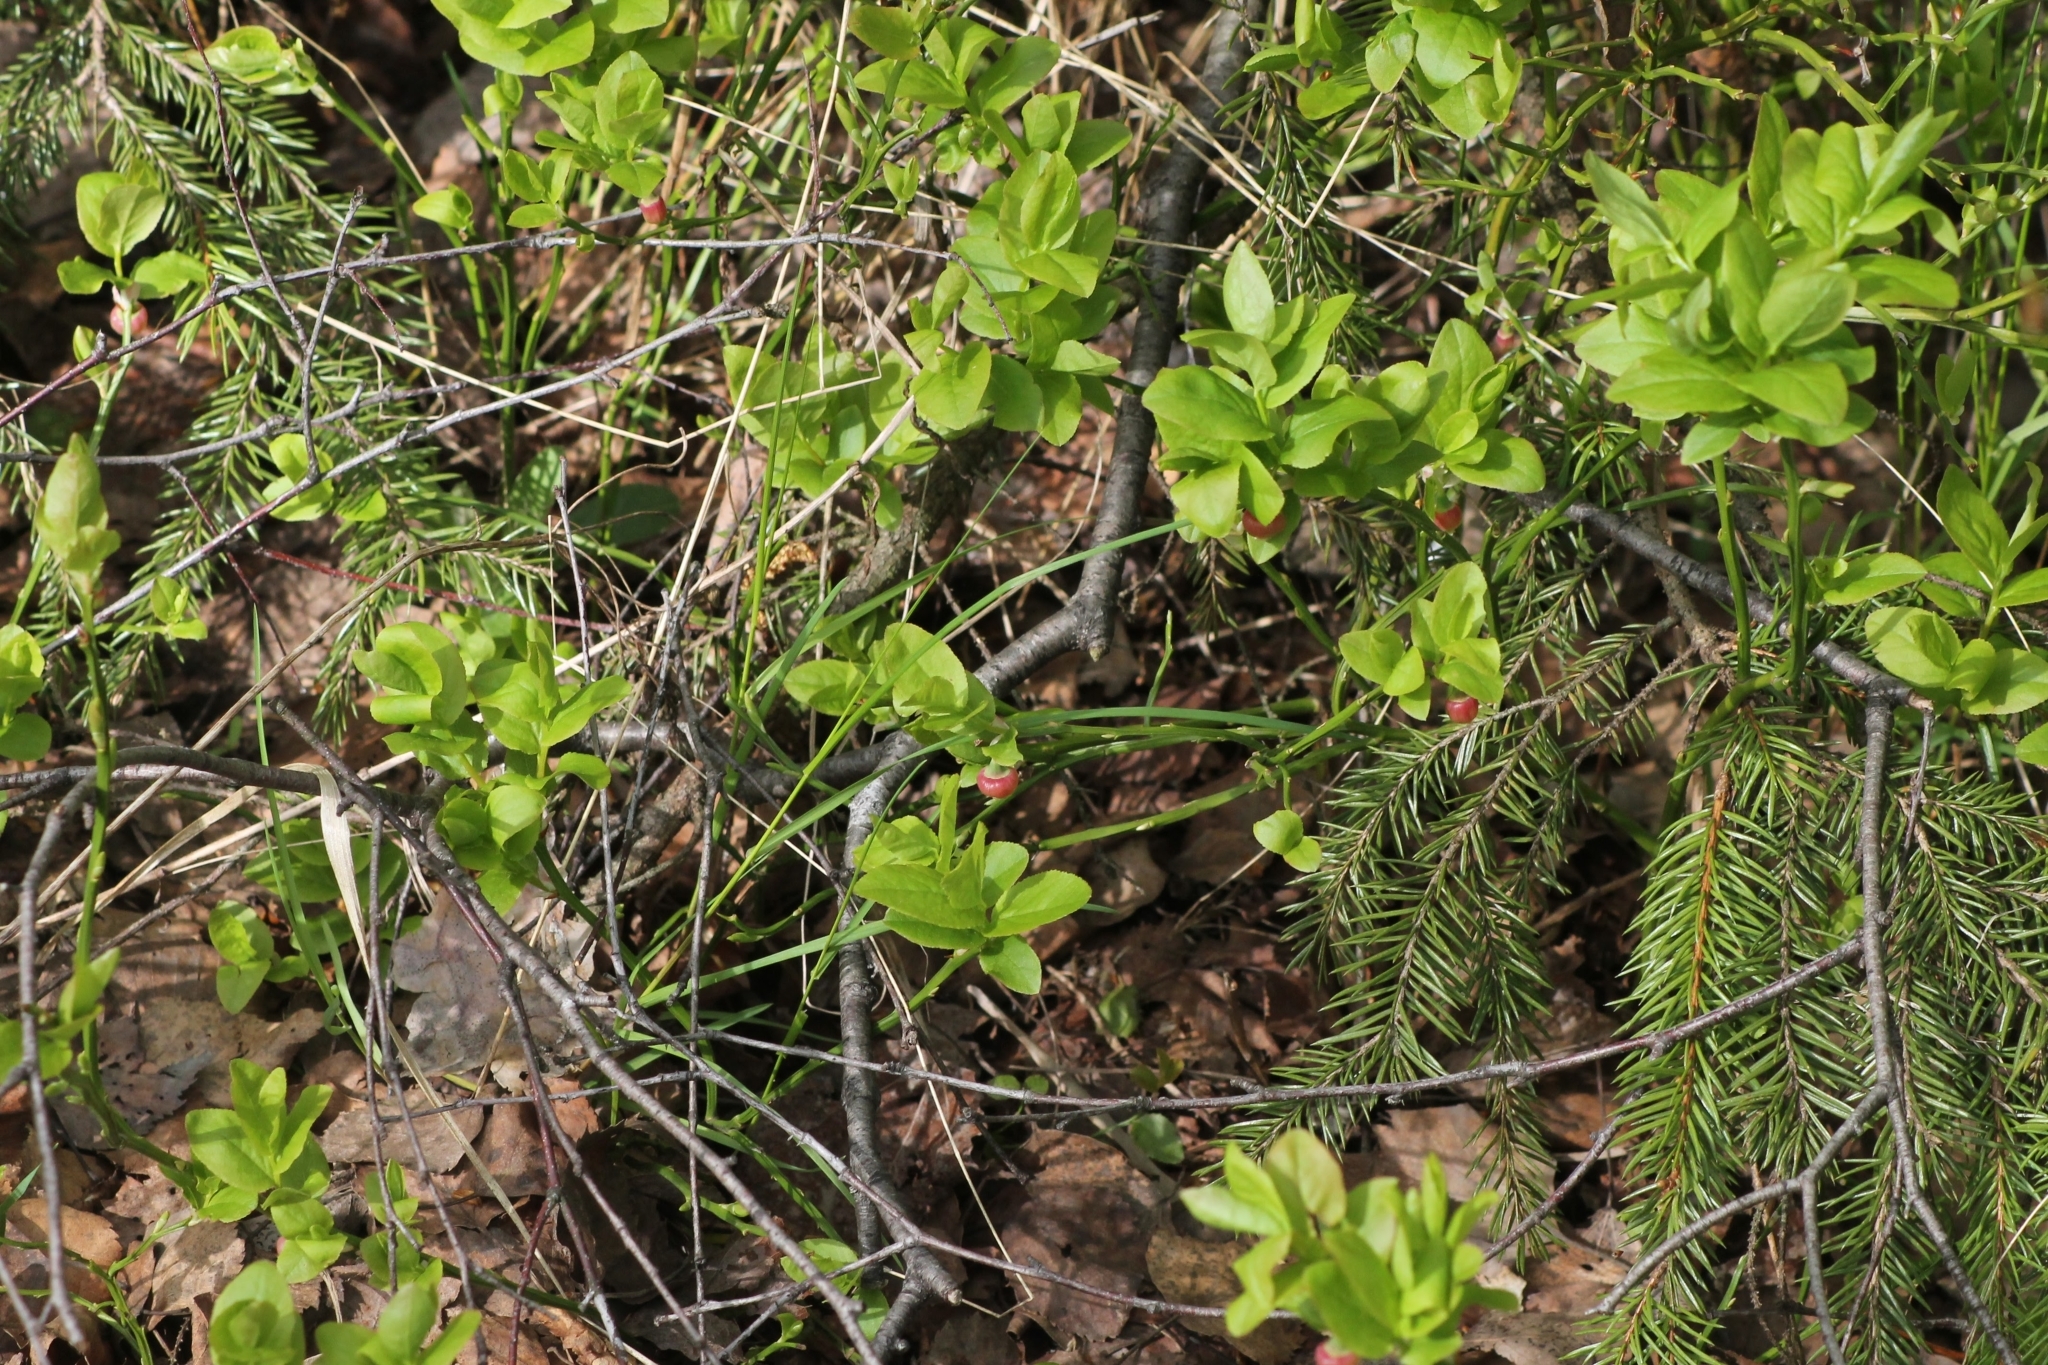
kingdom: Plantae
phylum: Tracheophyta
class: Magnoliopsida
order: Ericales
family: Ericaceae
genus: Vaccinium
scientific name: Vaccinium myrtillus
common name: Bilberry
